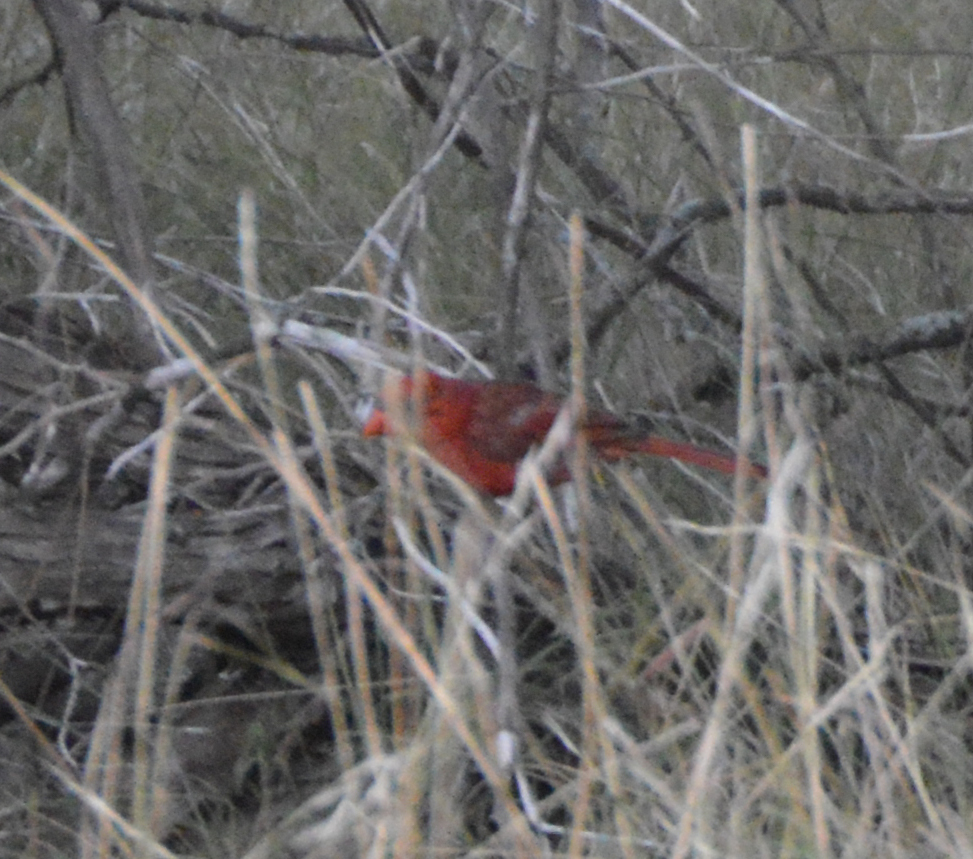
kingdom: Animalia
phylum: Chordata
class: Aves
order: Passeriformes
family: Cardinalidae
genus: Cardinalis
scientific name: Cardinalis cardinalis
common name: Northern cardinal
